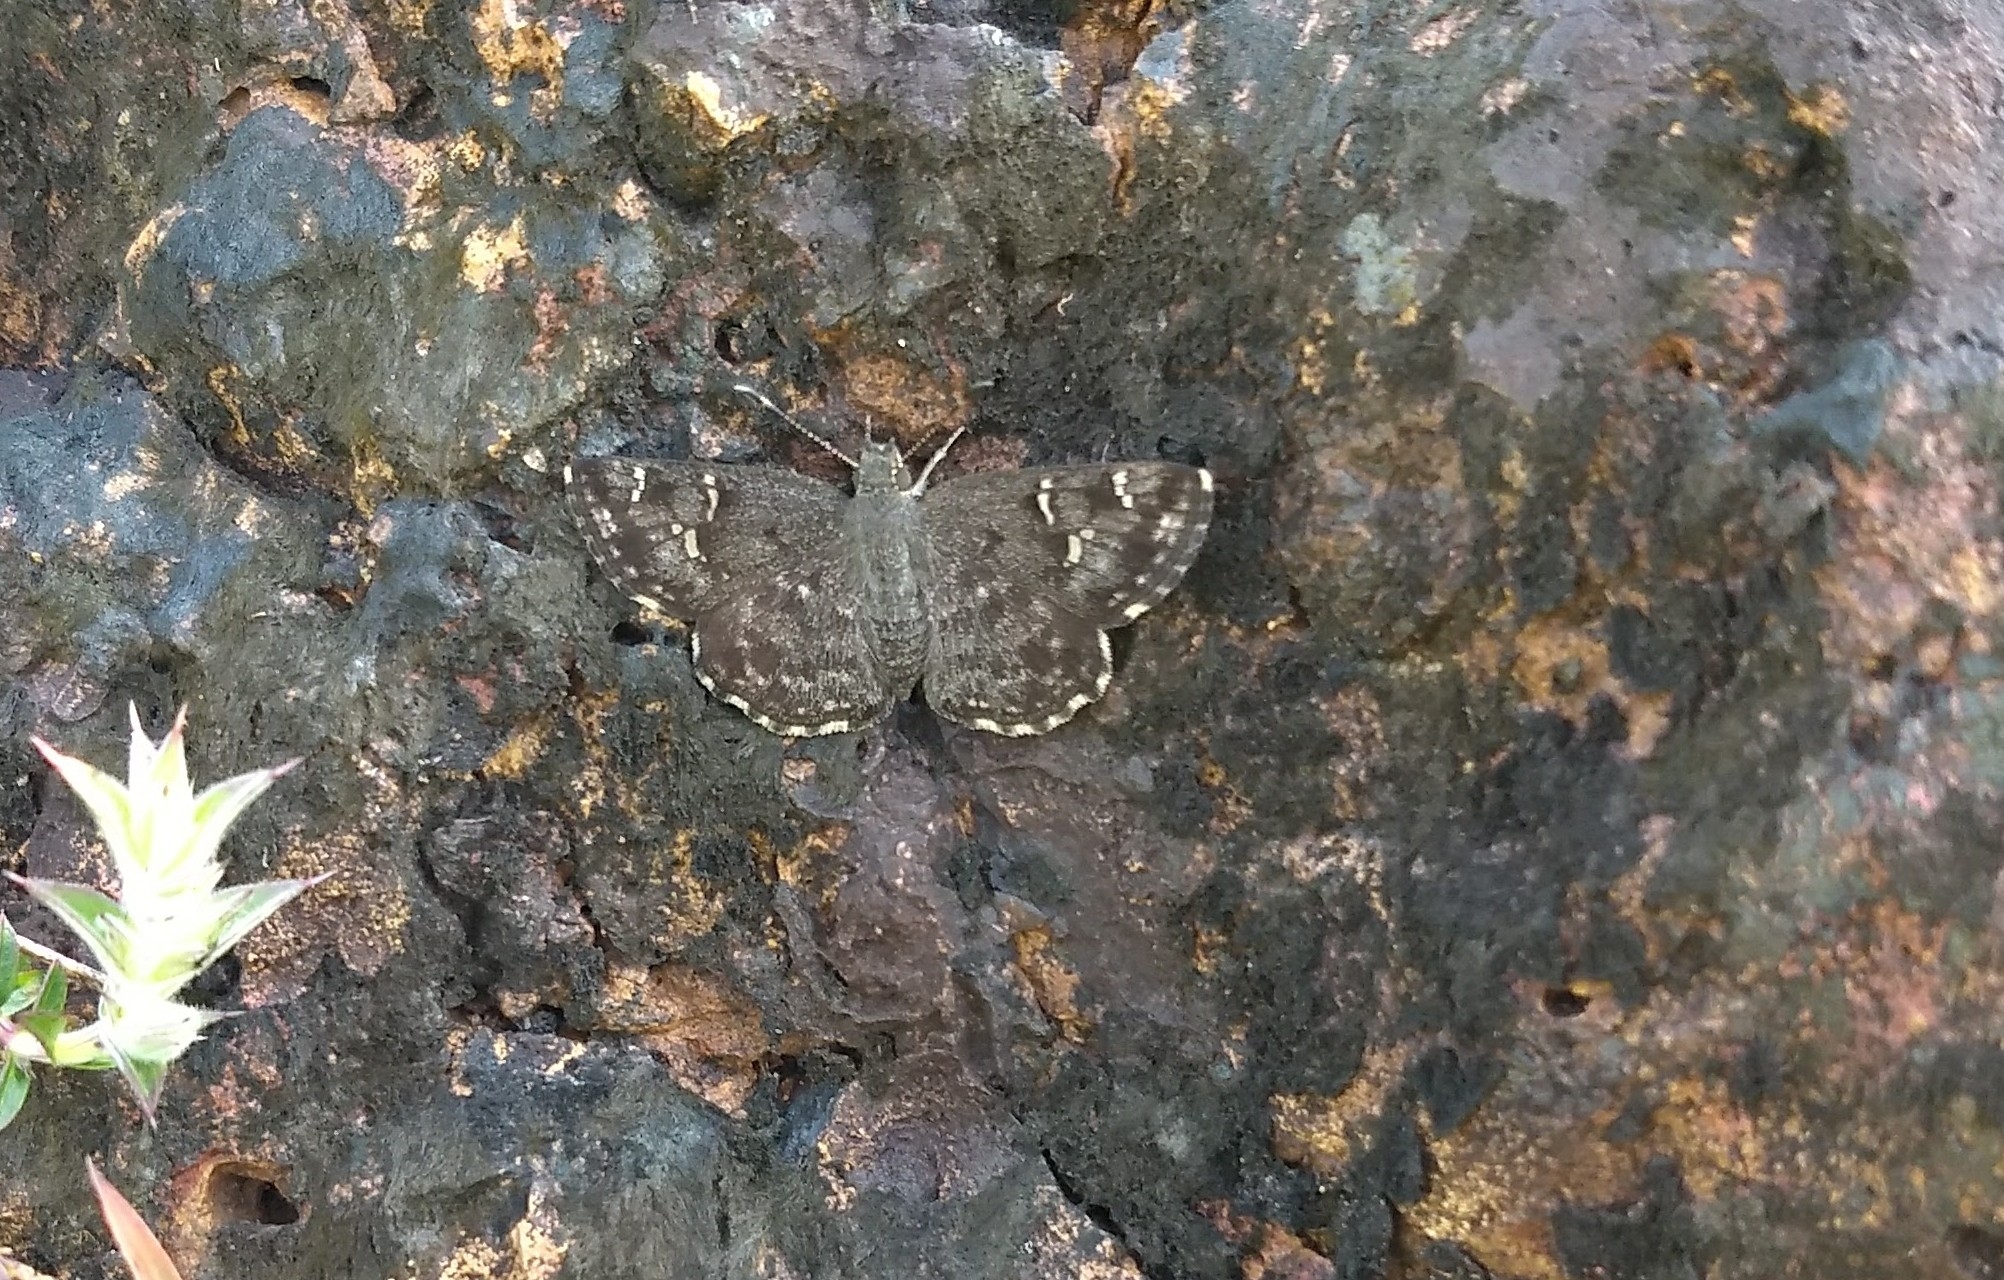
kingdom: Animalia
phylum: Arthropoda
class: Insecta
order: Lepidoptera
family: Hesperiidae
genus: Sarangesa
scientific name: Sarangesa purendra
